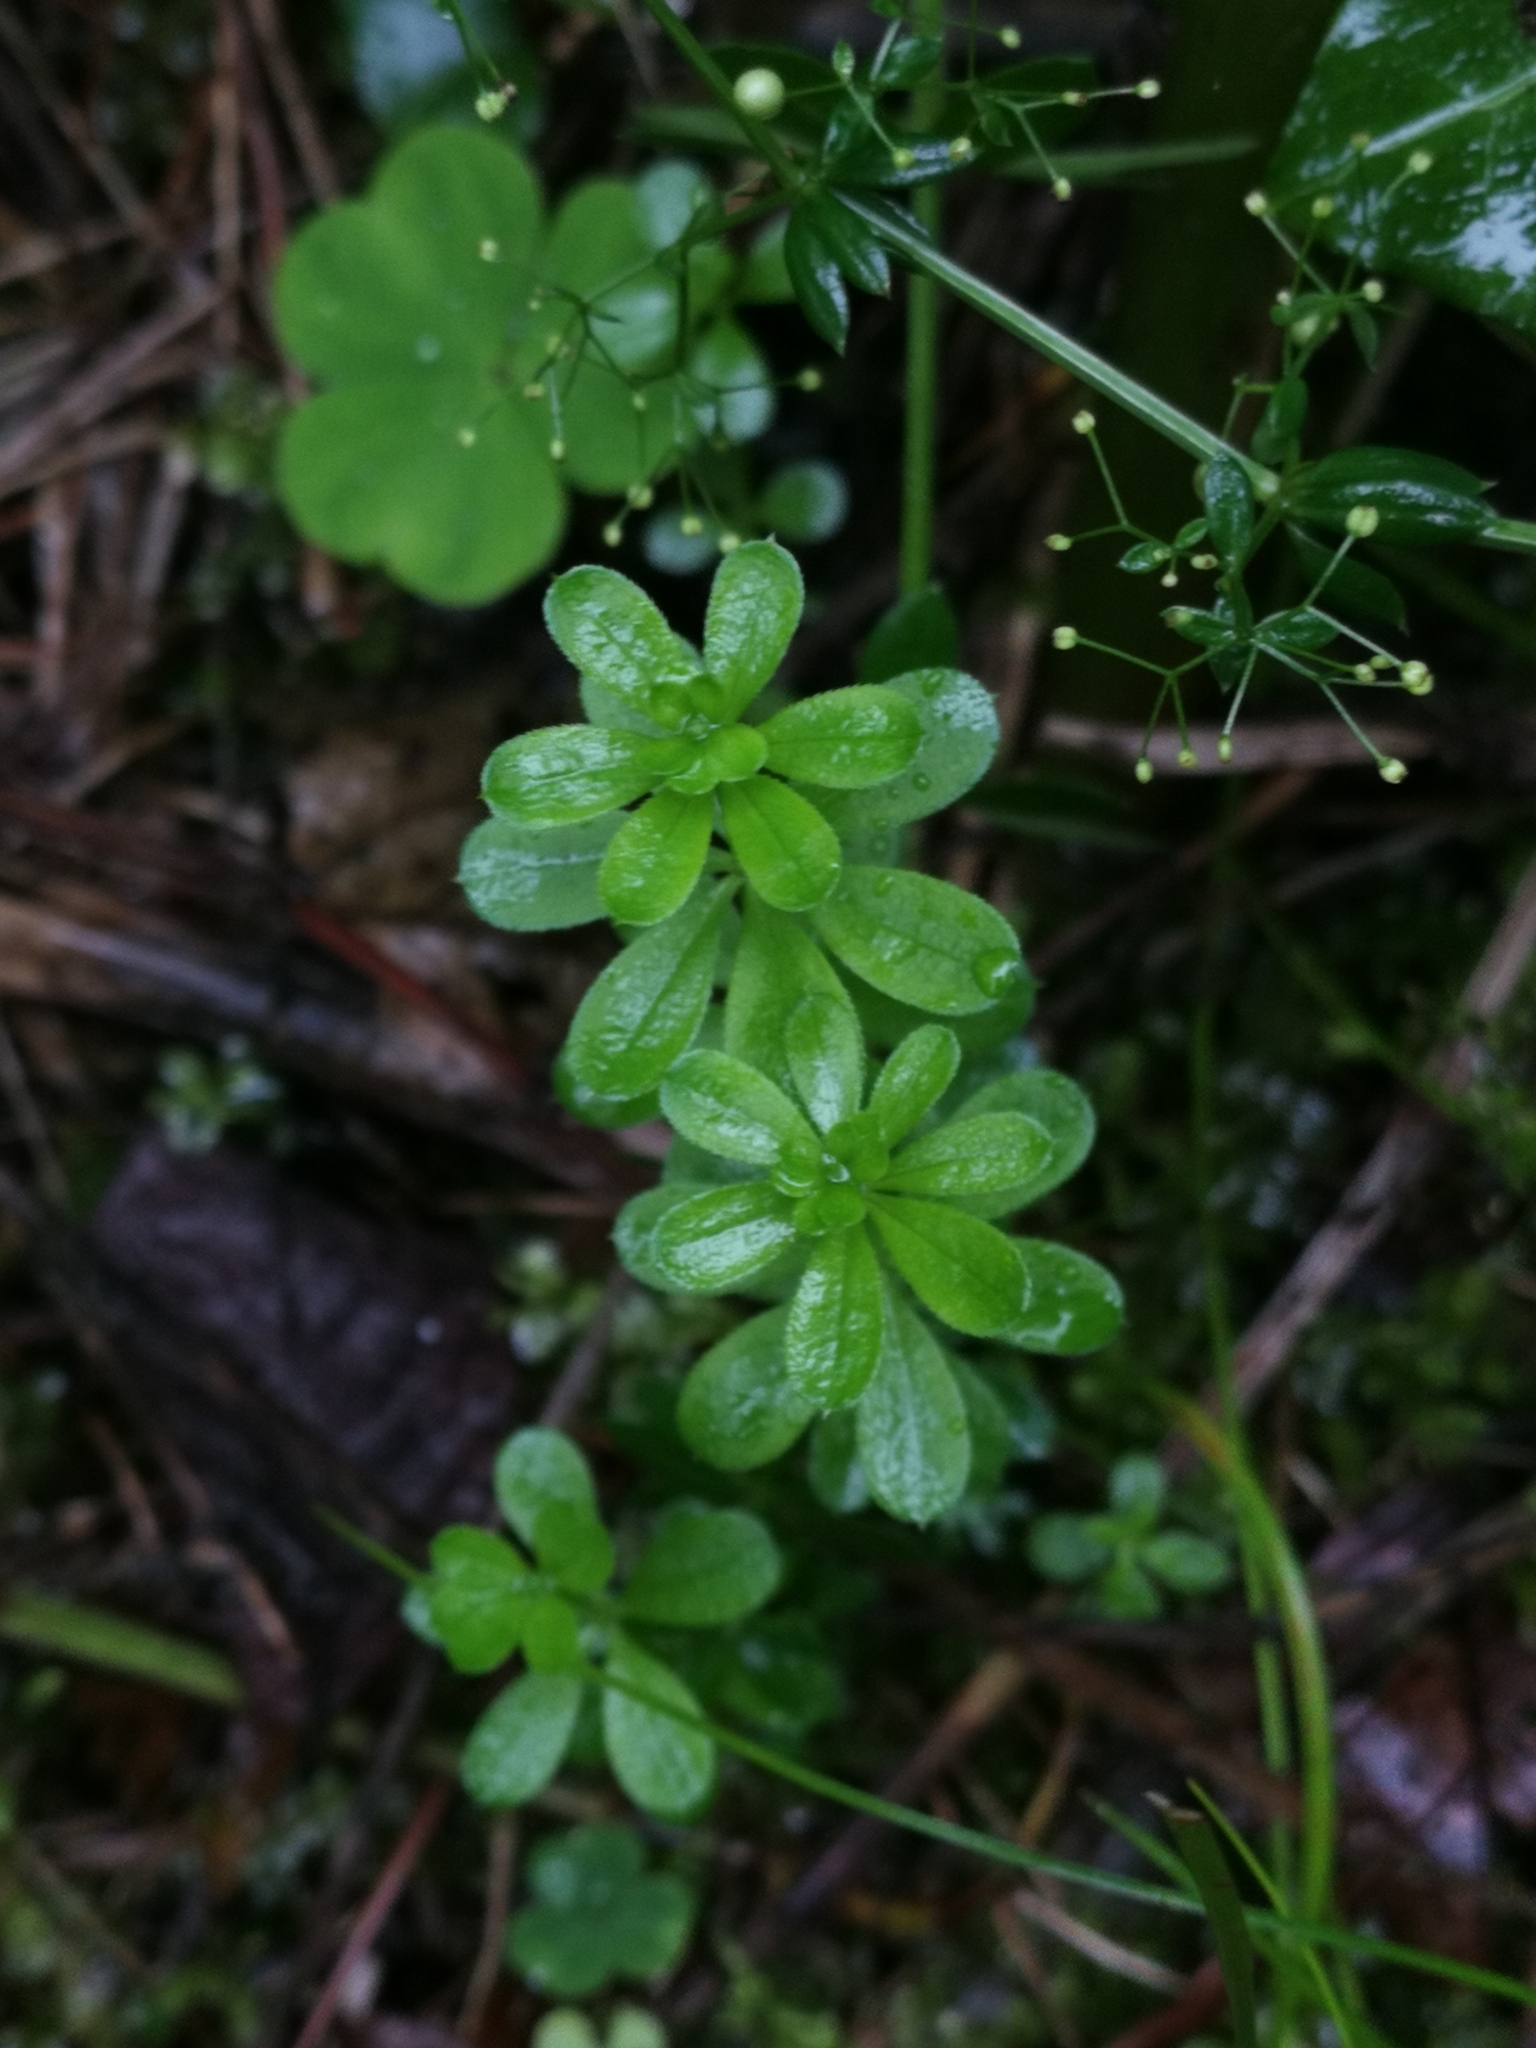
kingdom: Plantae
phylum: Tracheophyta
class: Magnoliopsida
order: Gentianales
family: Rubiaceae
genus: Galium
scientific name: Galium odoratum
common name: Sweet woodruff
